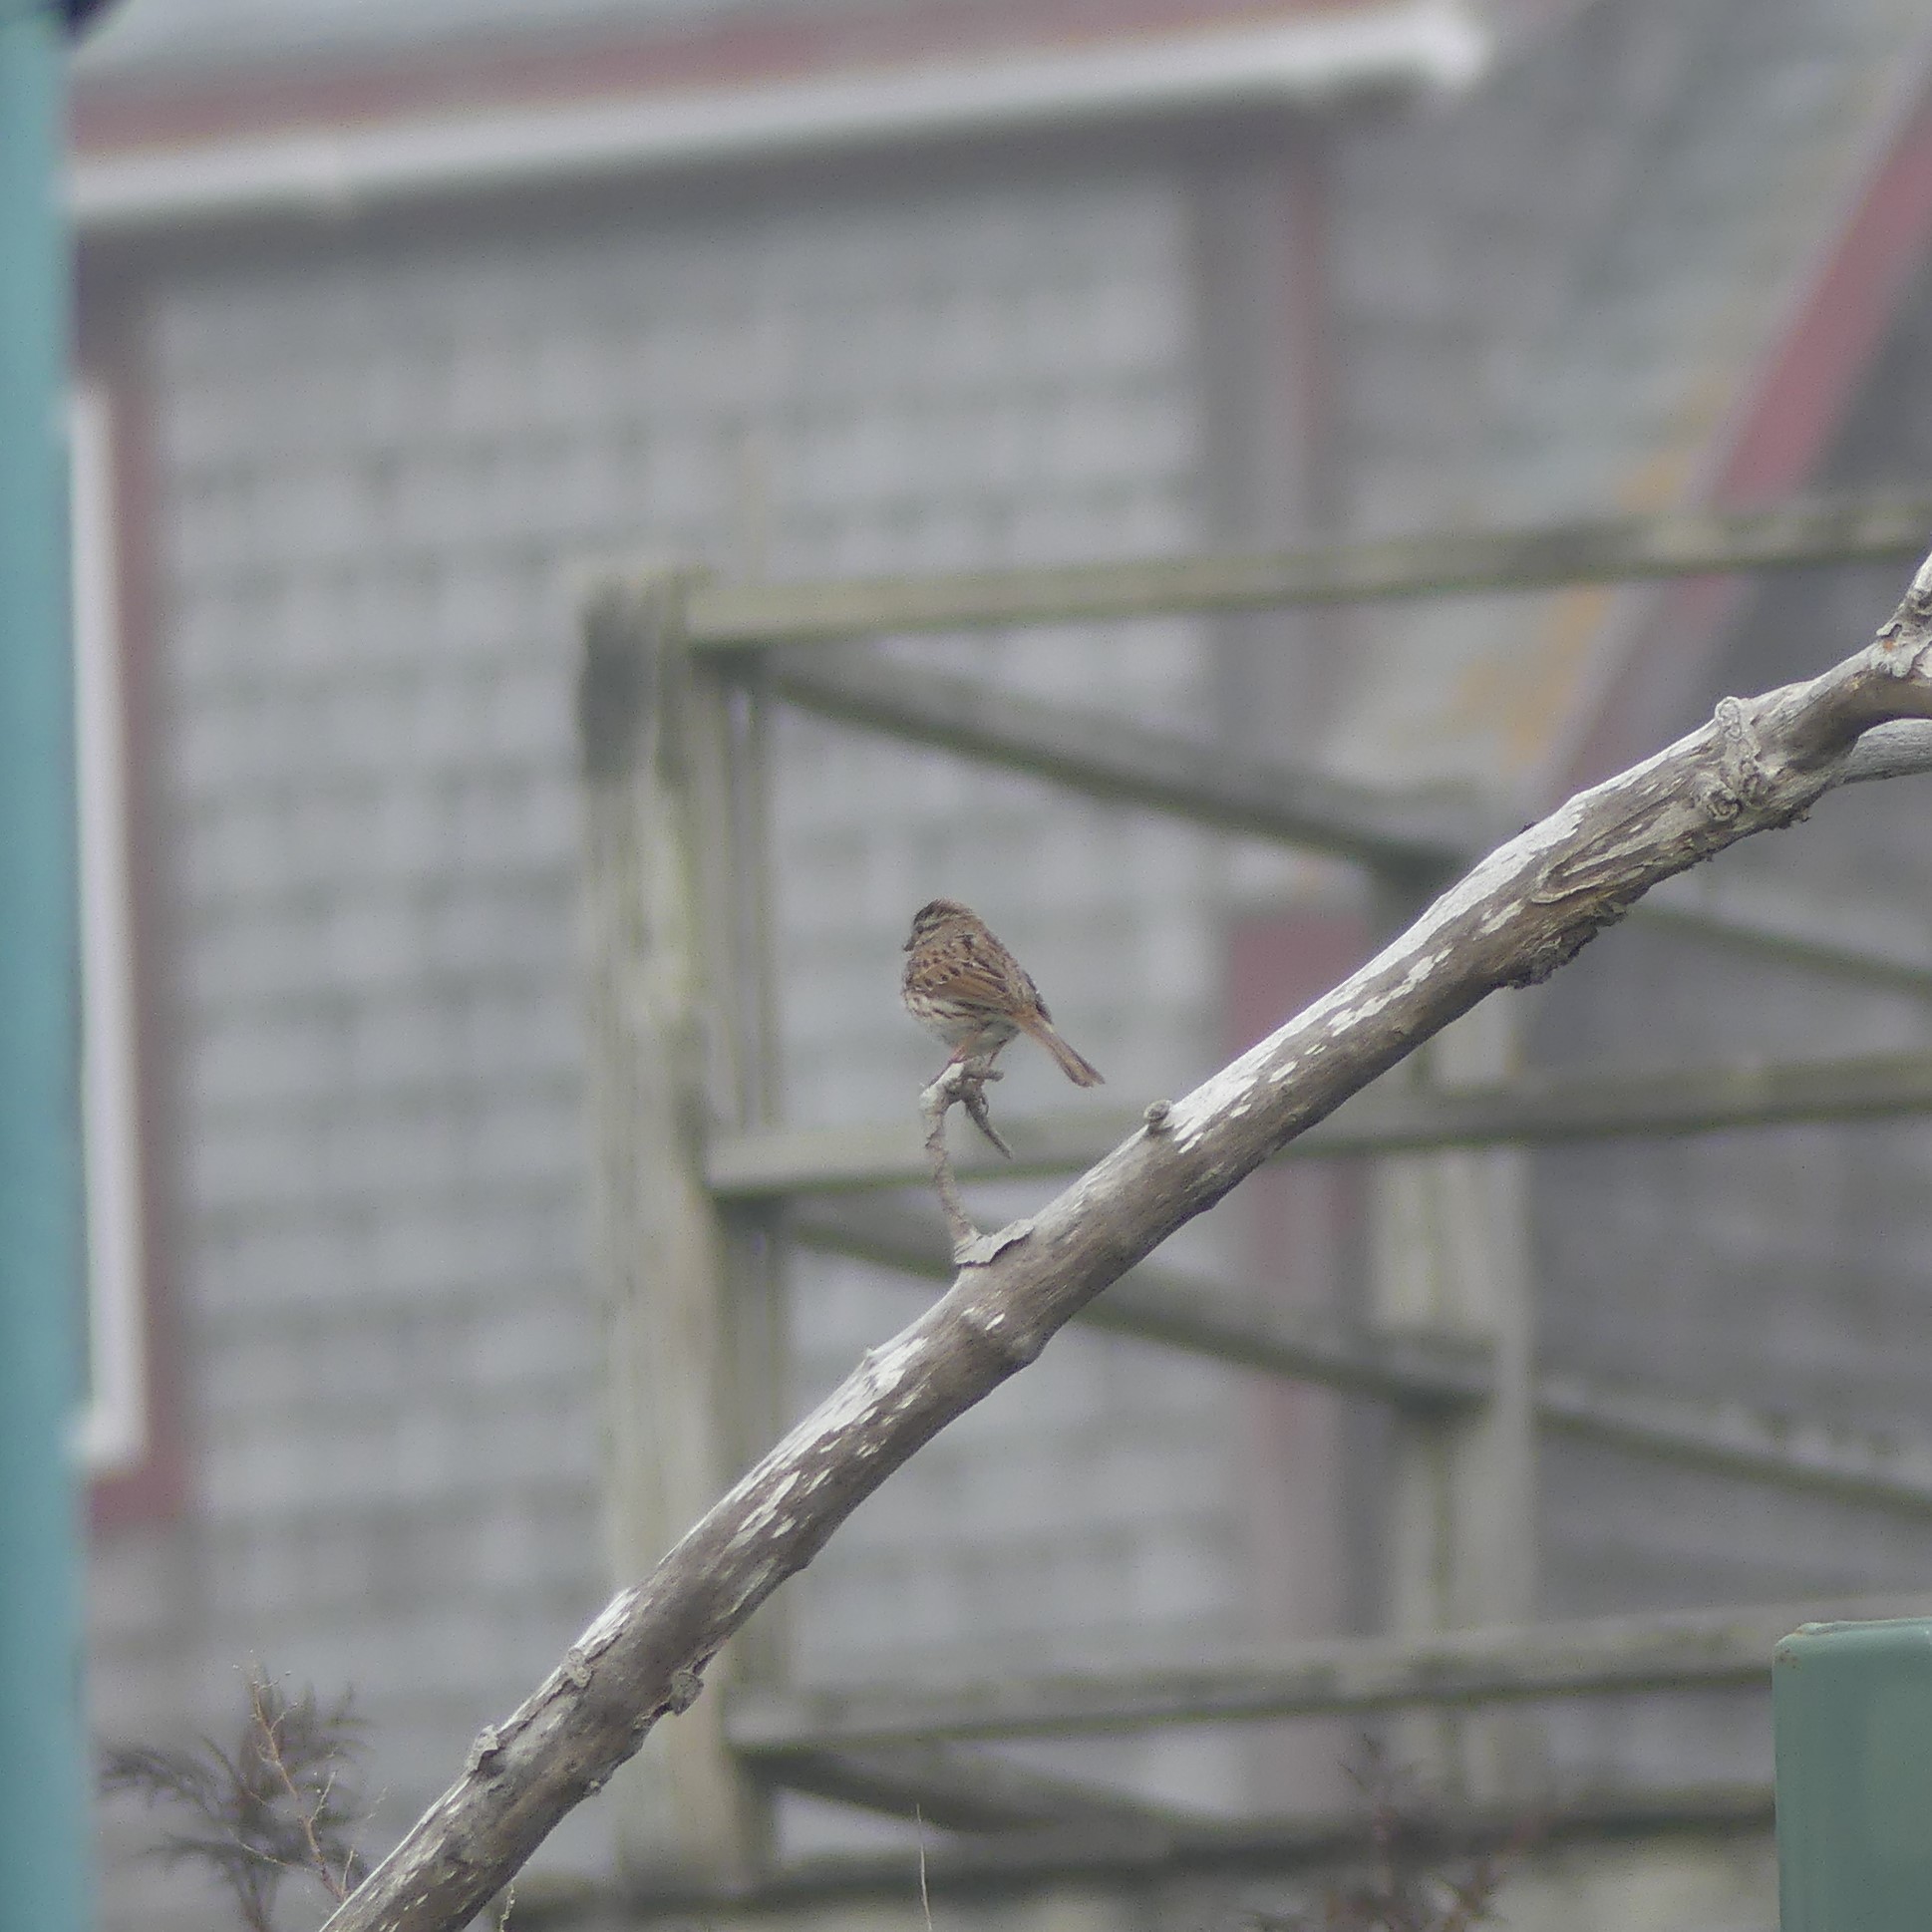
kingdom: Animalia
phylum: Chordata
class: Aves
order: Passeriformes
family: Passerellidae
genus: Melospiza
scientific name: Melospiza melodia
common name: Song sparrow
